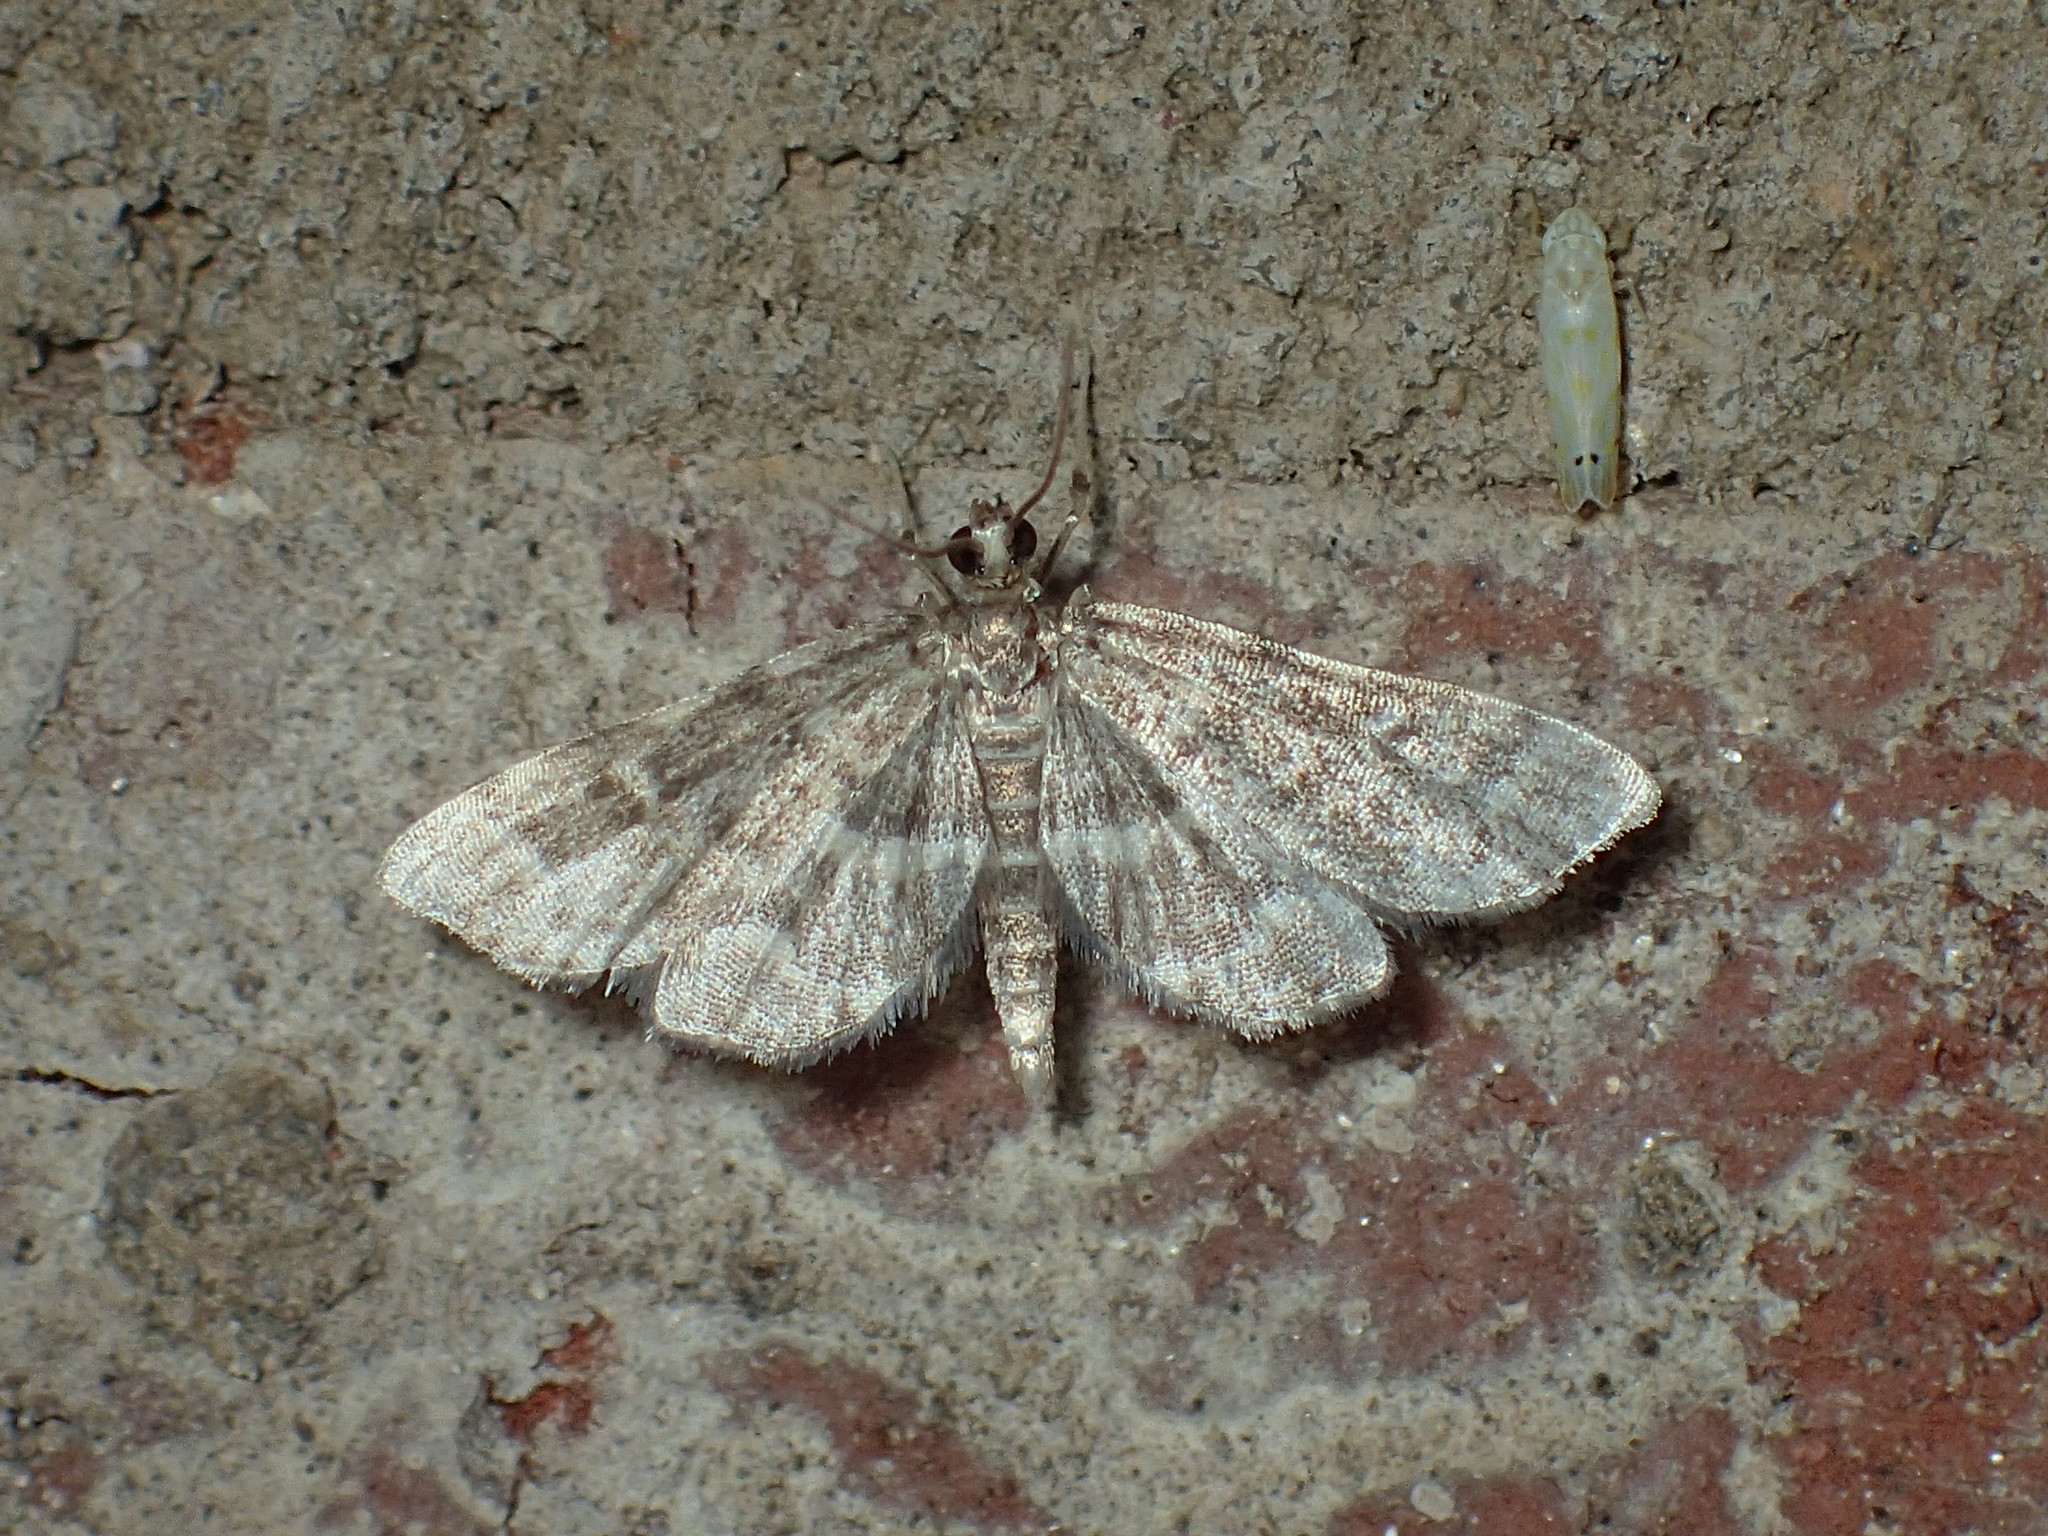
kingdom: Animalia
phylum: Arthropoda
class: Insecta
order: Lepidoptera
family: Crambidae
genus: Anageshna
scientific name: Anageshna primordialis
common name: Yellow-spotted webworm moth
